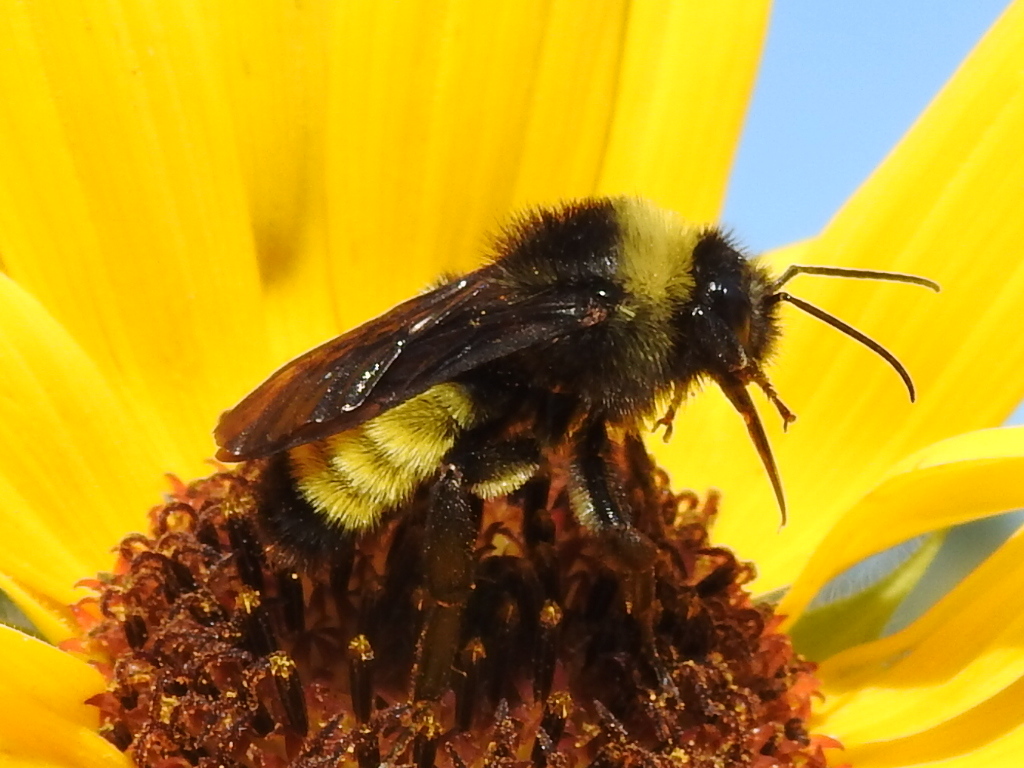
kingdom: Animalia
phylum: Arthropoda
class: Insecta
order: Hymenoptera
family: Apidae
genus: Bombus
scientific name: Bombus pensylvanicus
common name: Bumble bee
